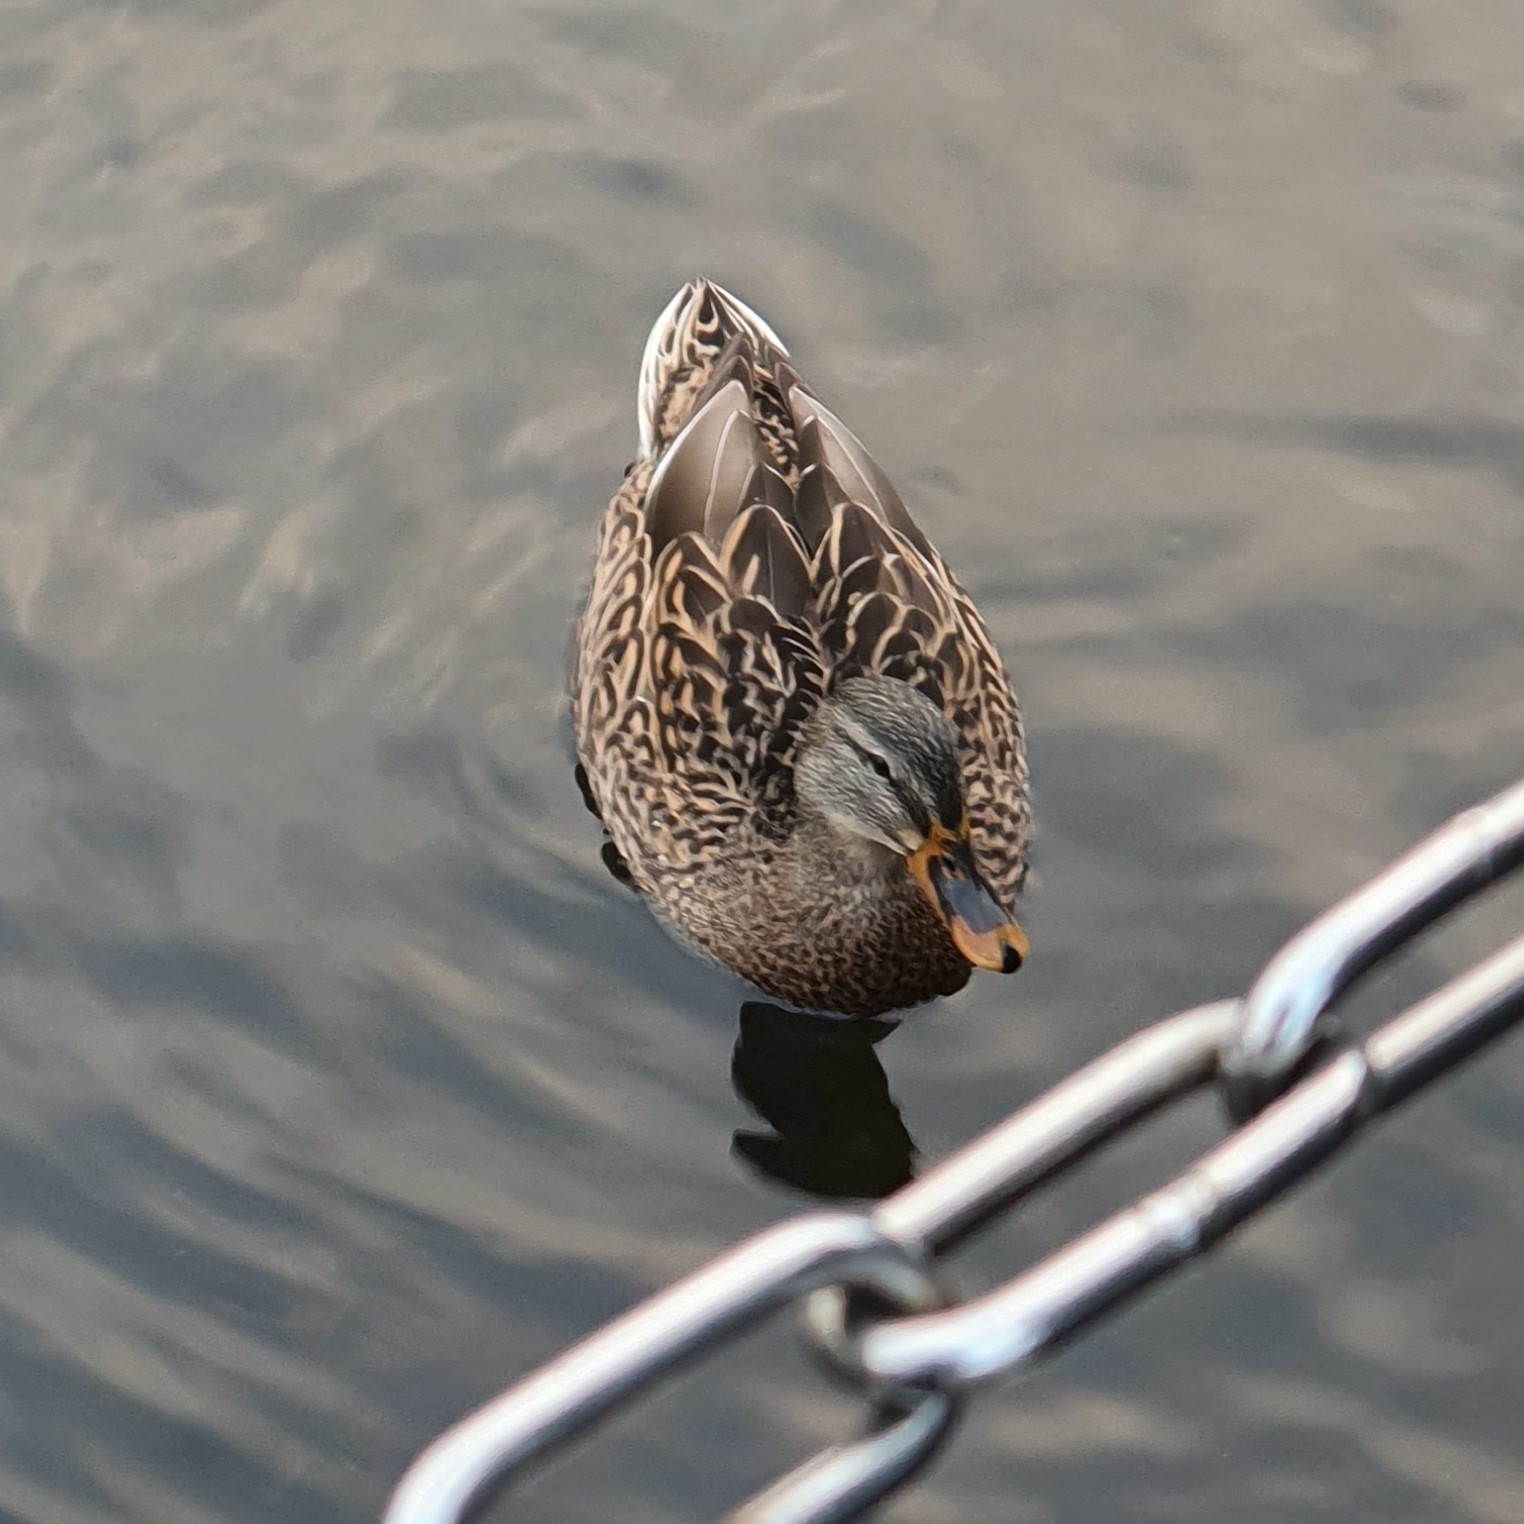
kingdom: Animalia
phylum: Chordata
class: Aves
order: Anseriformes
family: Anatidae
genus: Anas
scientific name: Anas platyrhynchos
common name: Mallard
